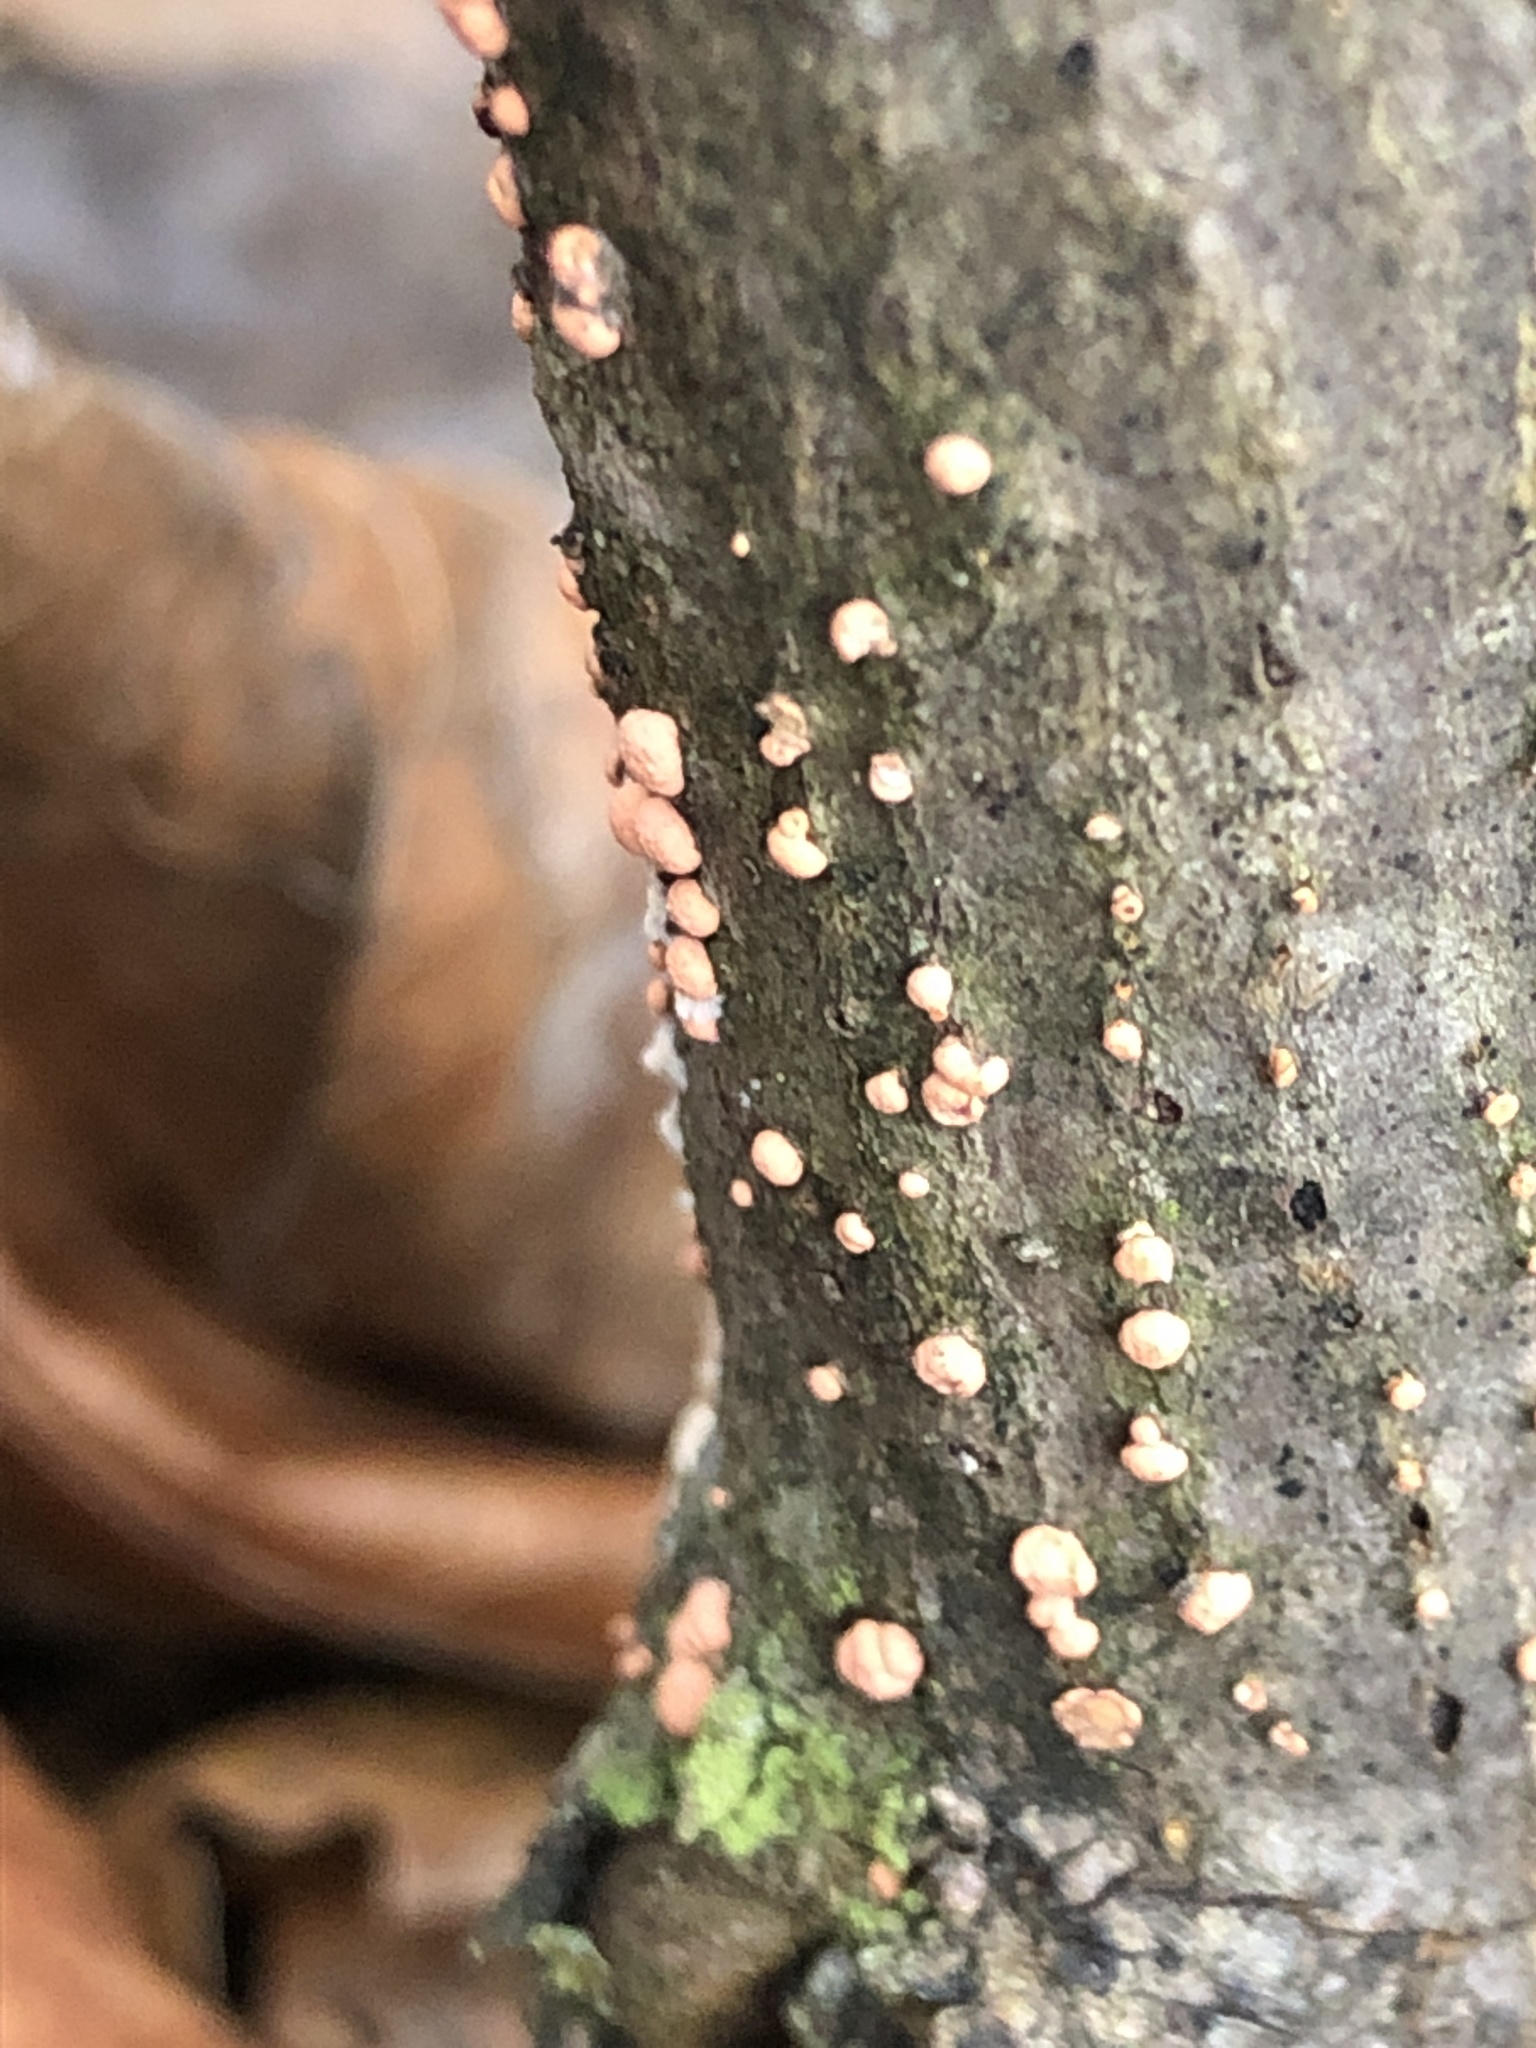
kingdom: Fungi
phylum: Ascomycota
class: Sordariomycetes
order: Hypocreales
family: Nectriaceae
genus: Nectria
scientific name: Nectria cinnabarina
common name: Coral spot
